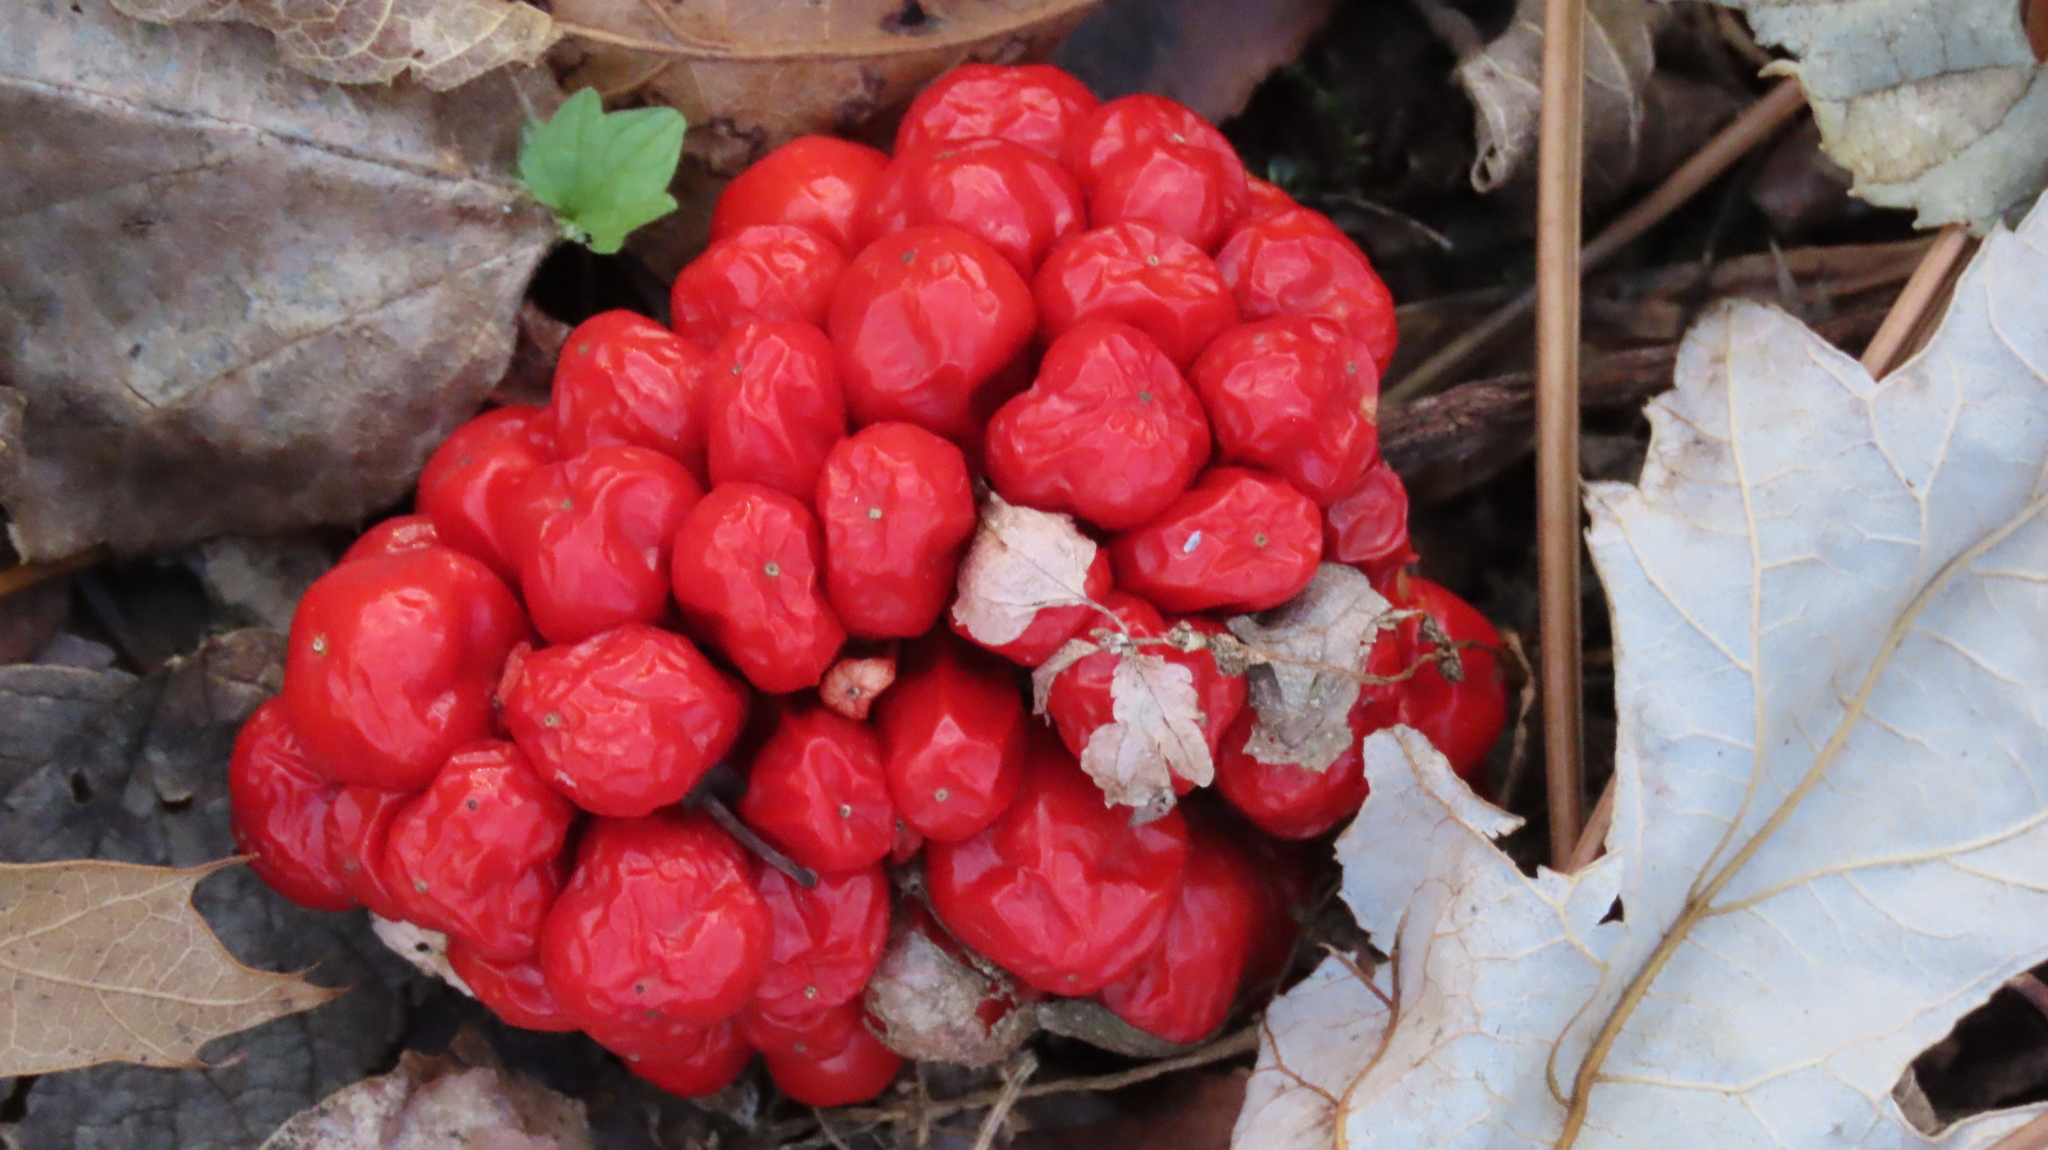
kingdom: Plantae
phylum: Tracheophyta
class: Liliopsida
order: Alismatales
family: Araceae
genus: Arisaema
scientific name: Arisaema triphyllum
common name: Jack-in-the-pulpit
